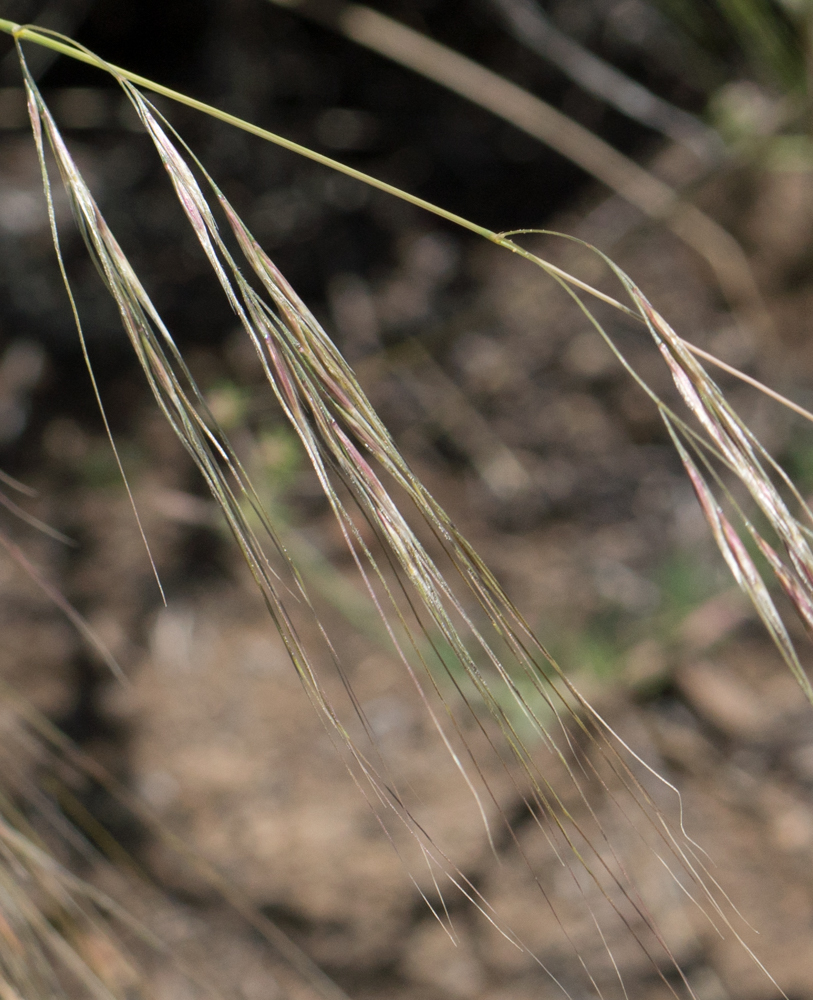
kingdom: Plantae
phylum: Tracheophyta
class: Liliopsida
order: Poales
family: Poaceae
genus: Nassella
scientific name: Nassella pulchra
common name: Purple needlegrass
